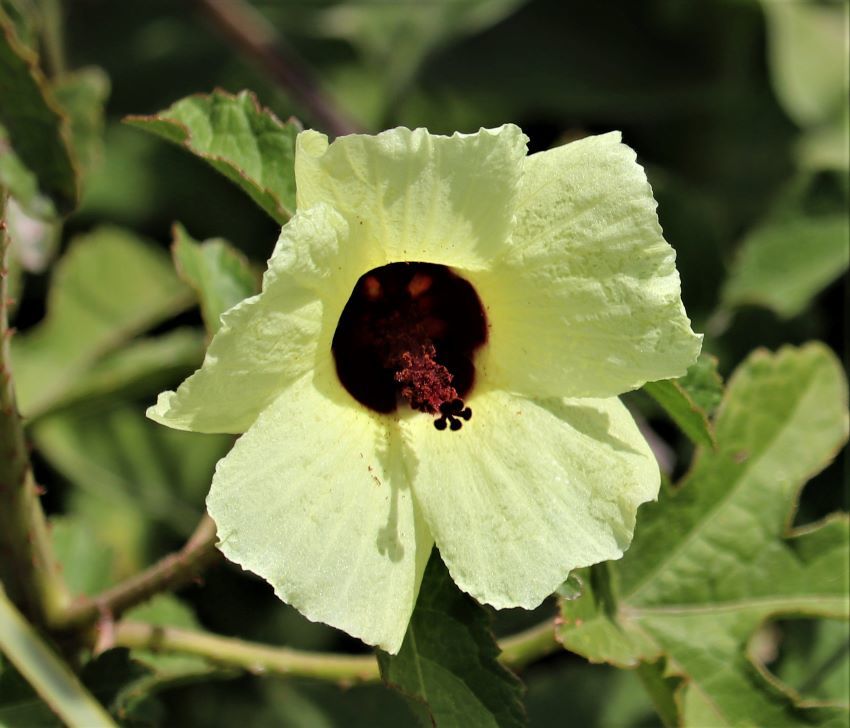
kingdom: Plantae
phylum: Tracheophyta
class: Magnoliopsida
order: Malvales
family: Malvaceae
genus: Hibiscus
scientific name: Hibiscus diversifolius
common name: Cape hibiscus
